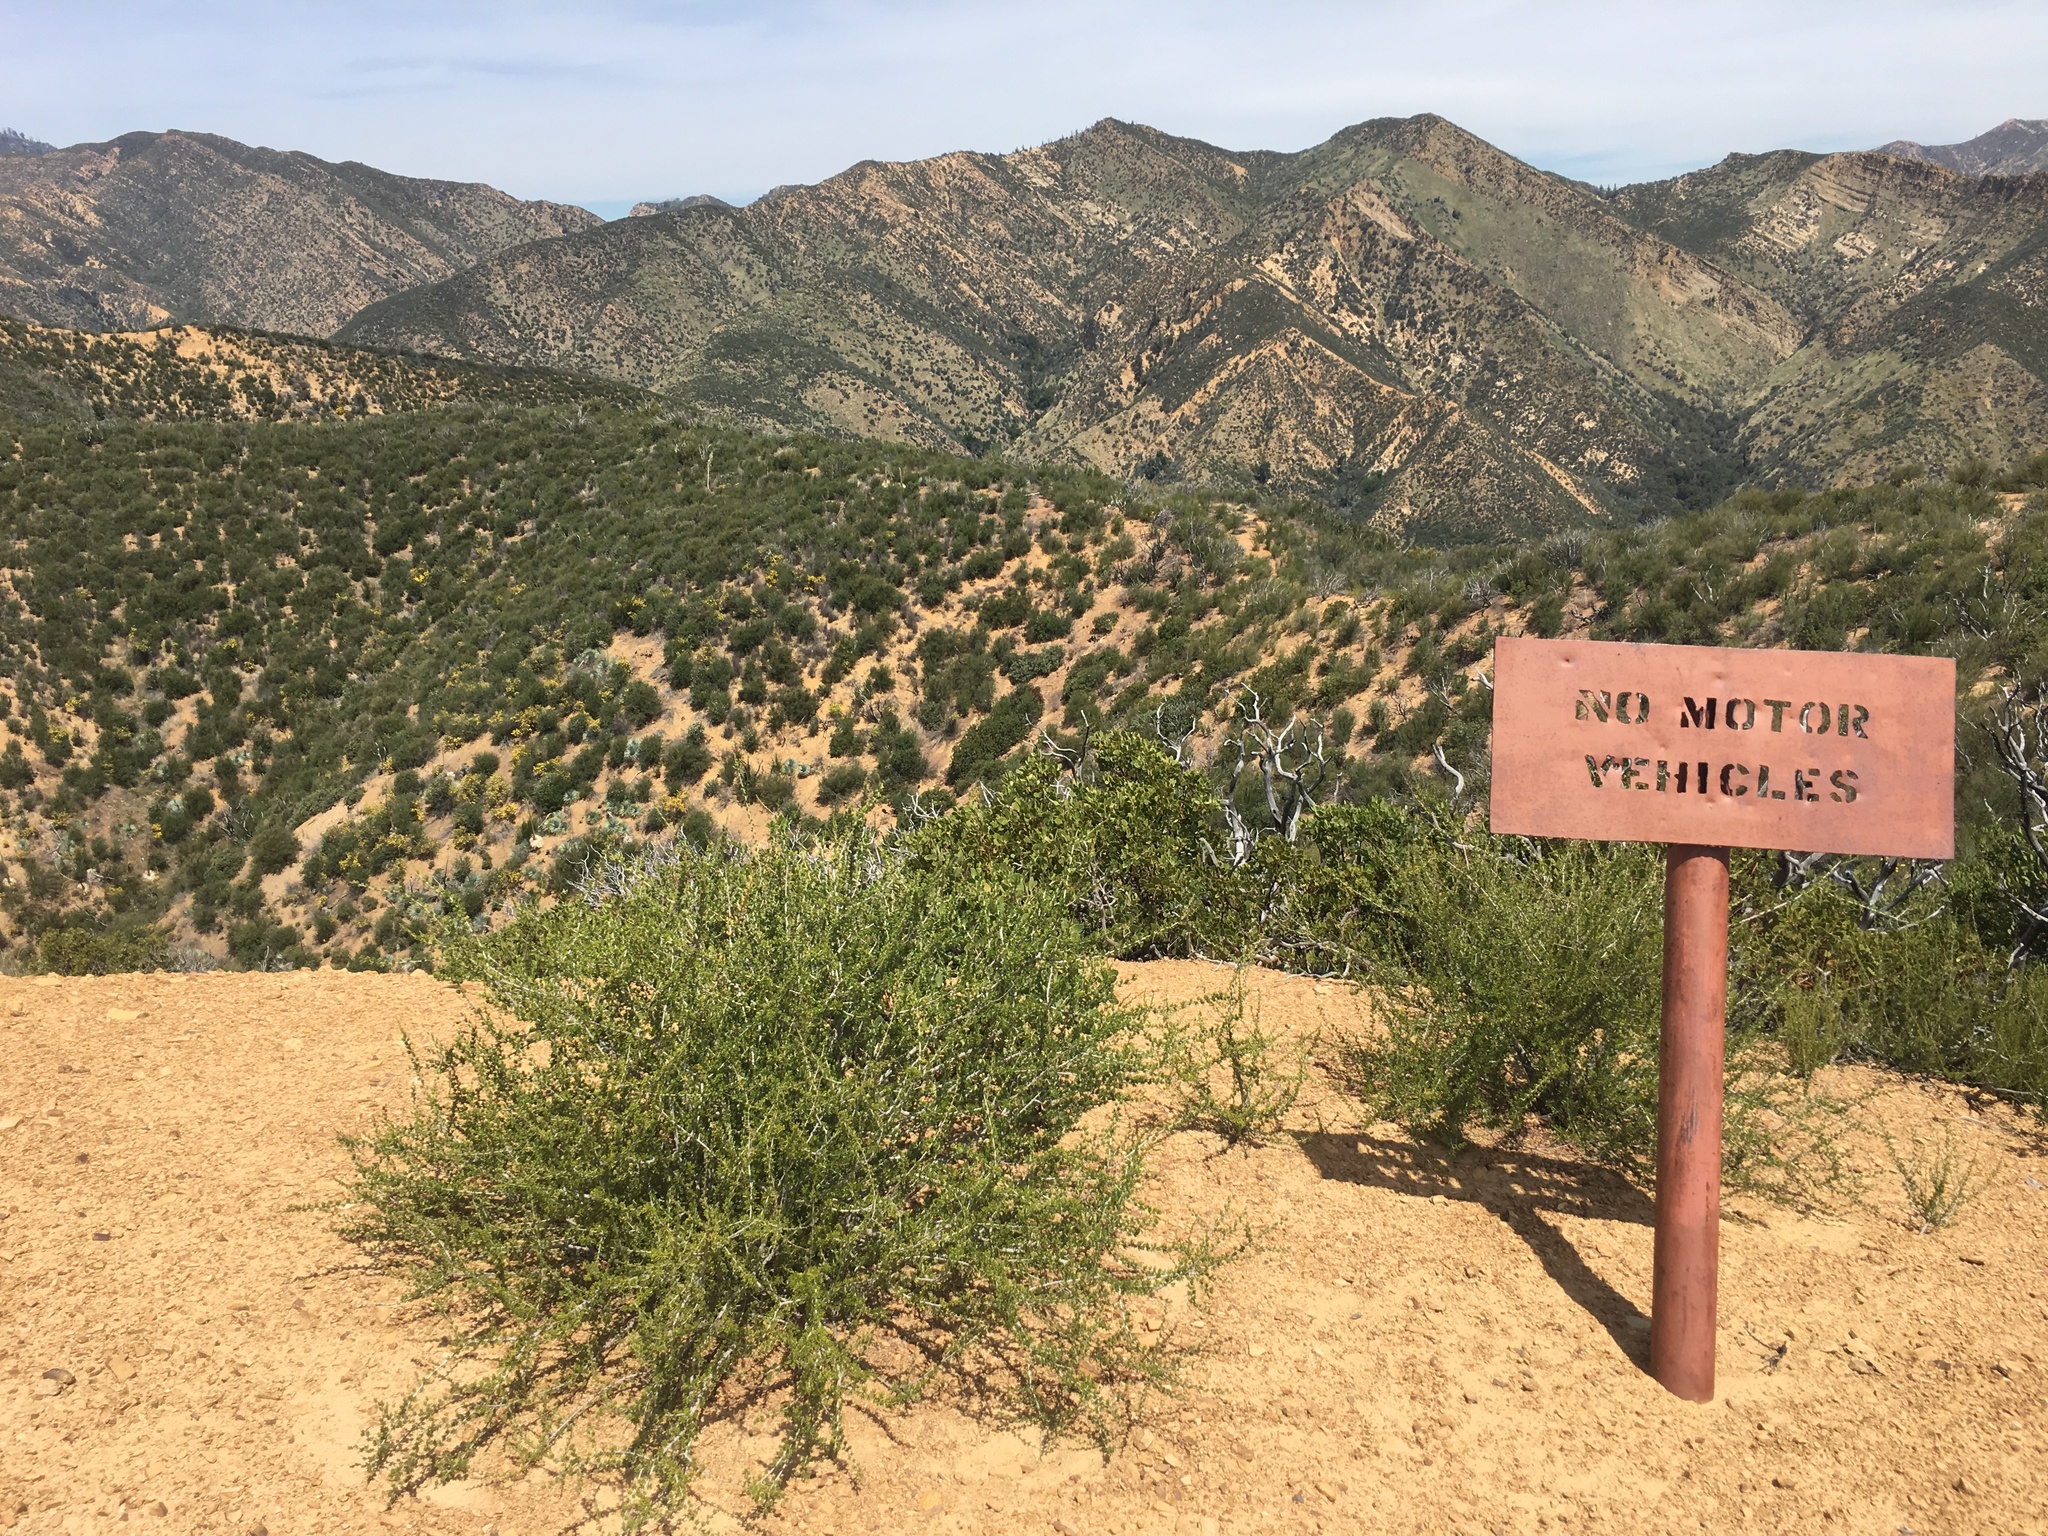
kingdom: Plantae
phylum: Tracheophyta
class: Magnoliopsida
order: Rosales
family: Rosaceae
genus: Adenostoma
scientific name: Adenostoma fasciculatum
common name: Chamise
